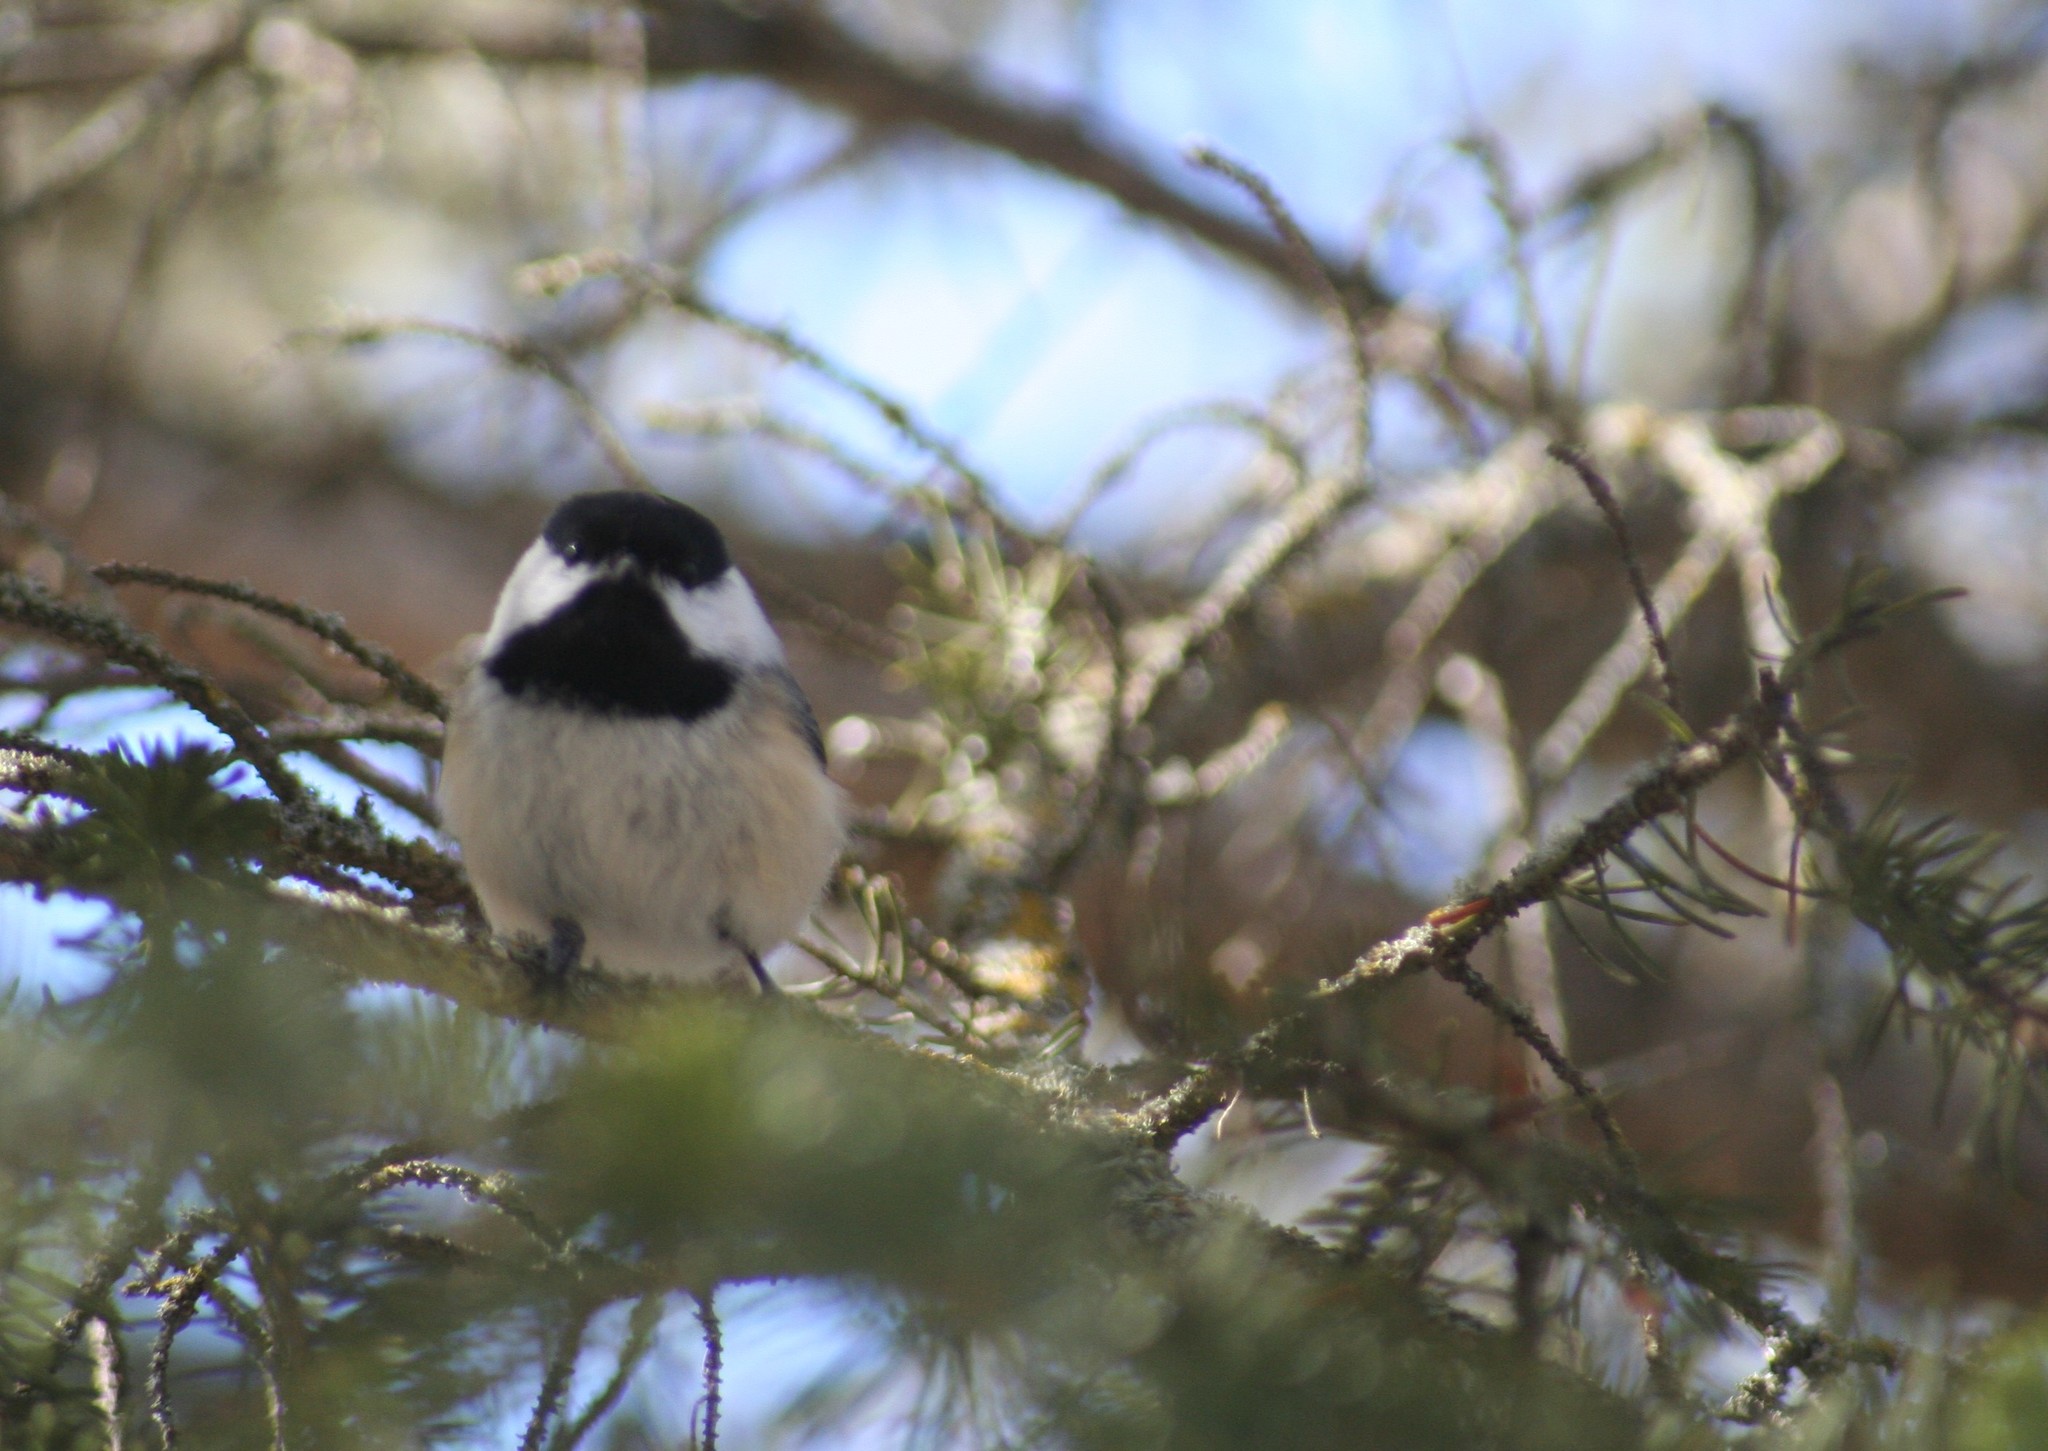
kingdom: Animalia
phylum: Chordata
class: Aves
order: Passeriformes
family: Paridae
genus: Poecile
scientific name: Poecile atricapillus
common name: Black-capped chickadee
